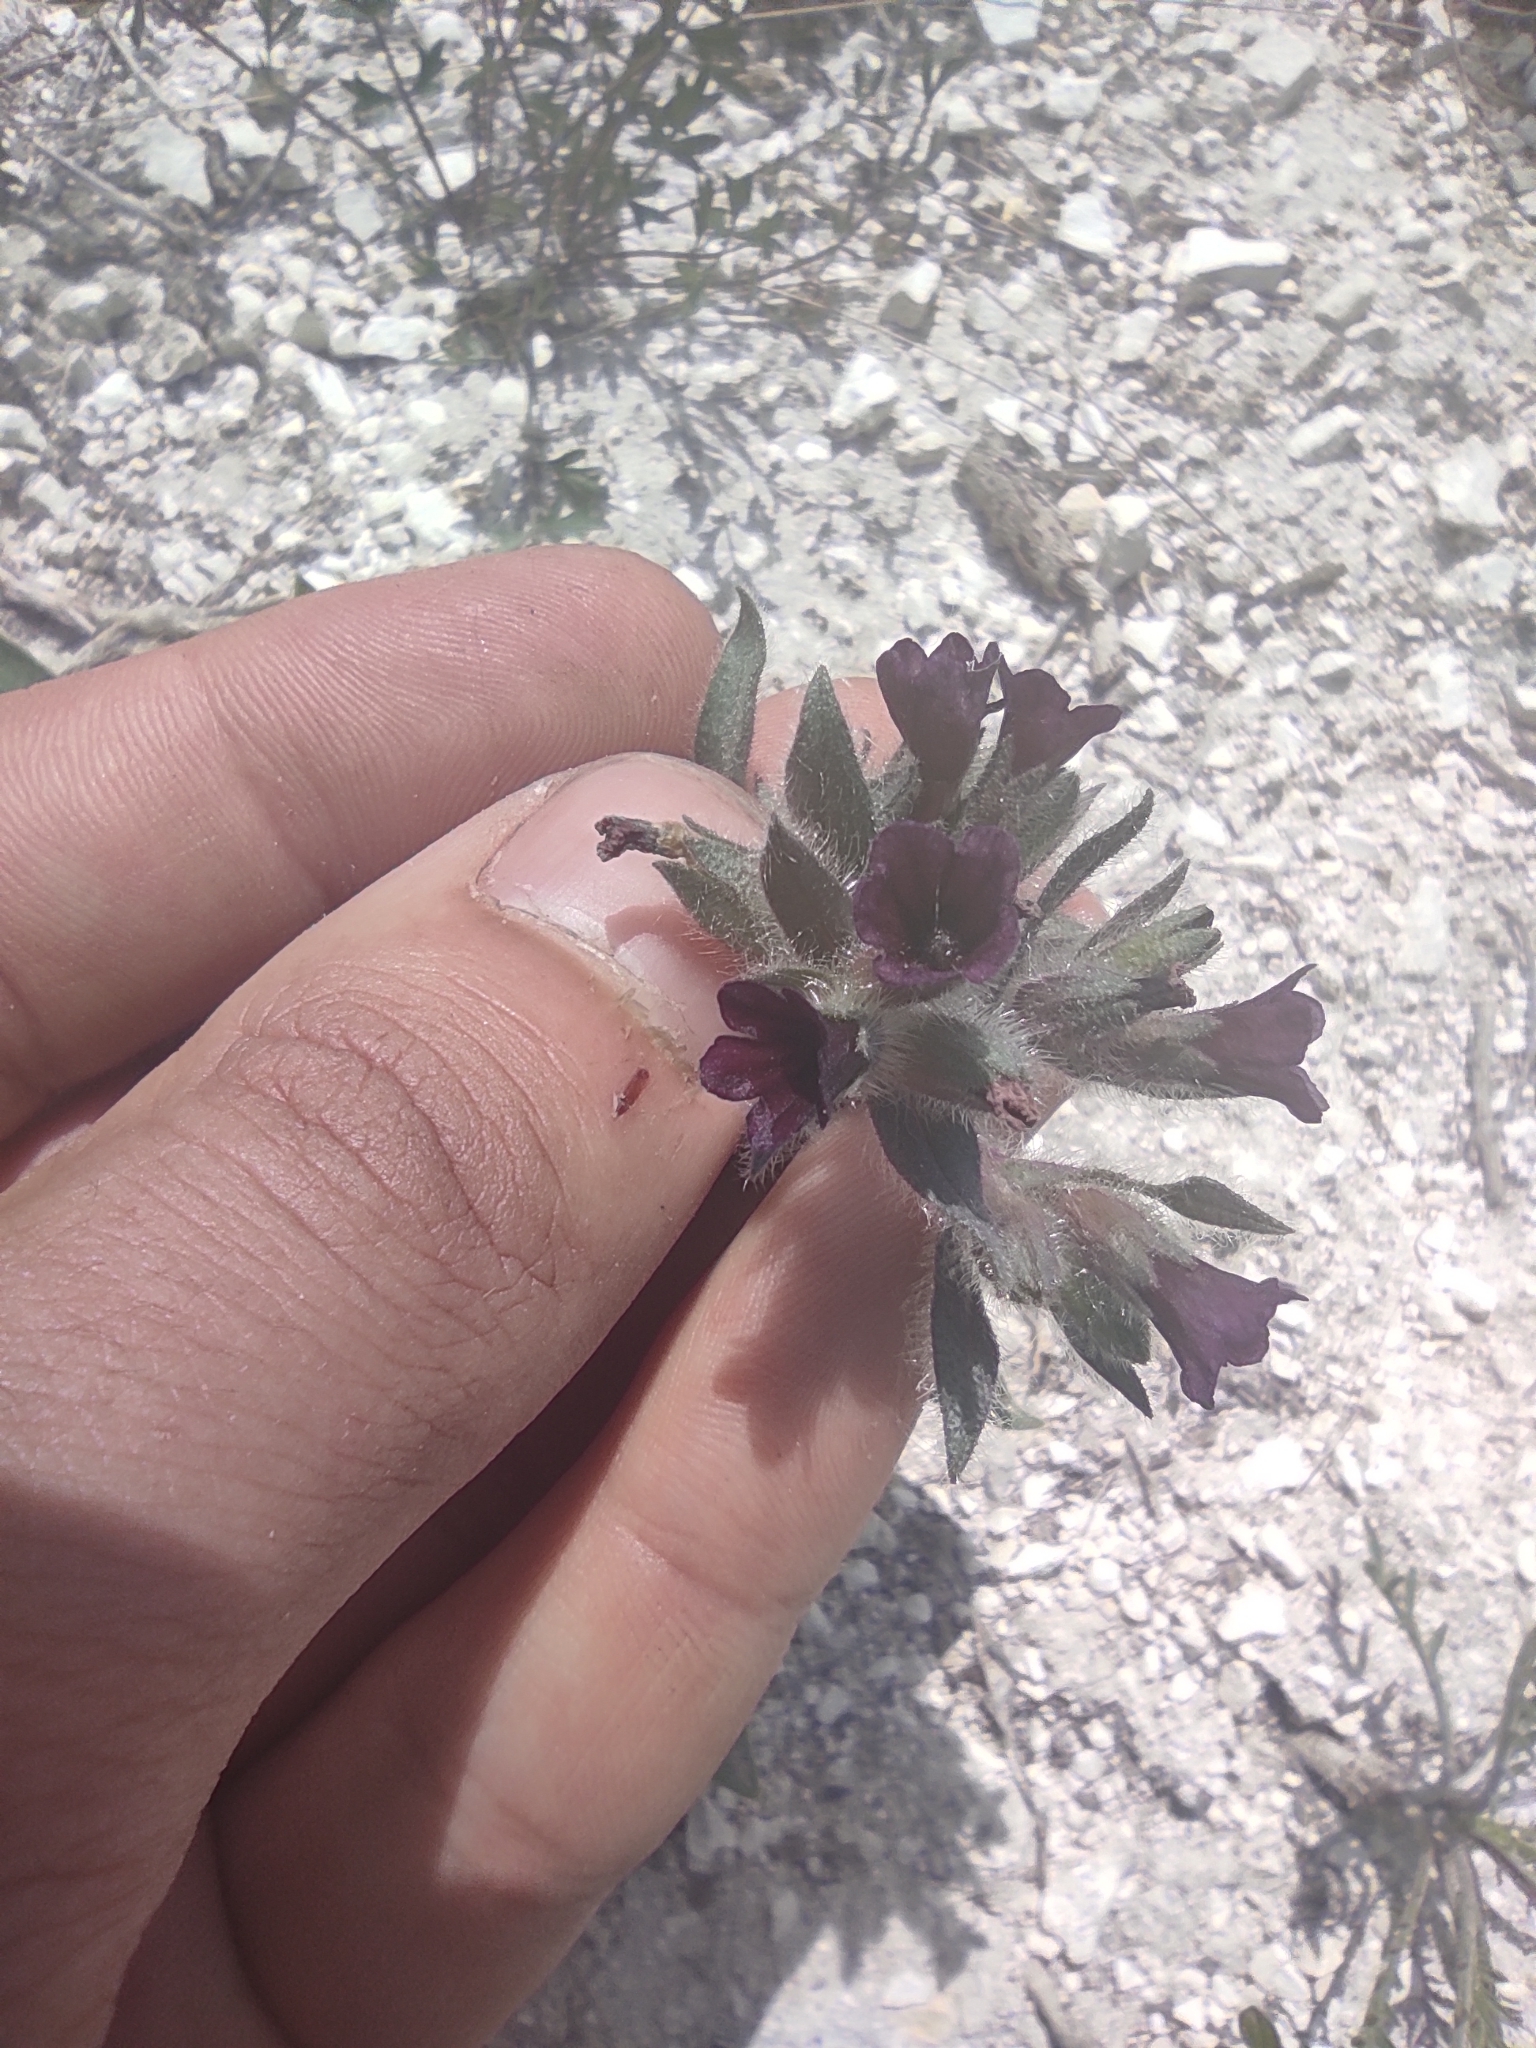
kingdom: Plantae
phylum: Tracheophyta
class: Magnoliopsida
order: Boraginales
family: Boraginaceae
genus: Nonea
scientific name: Nonea pulla
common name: Brown nonea
